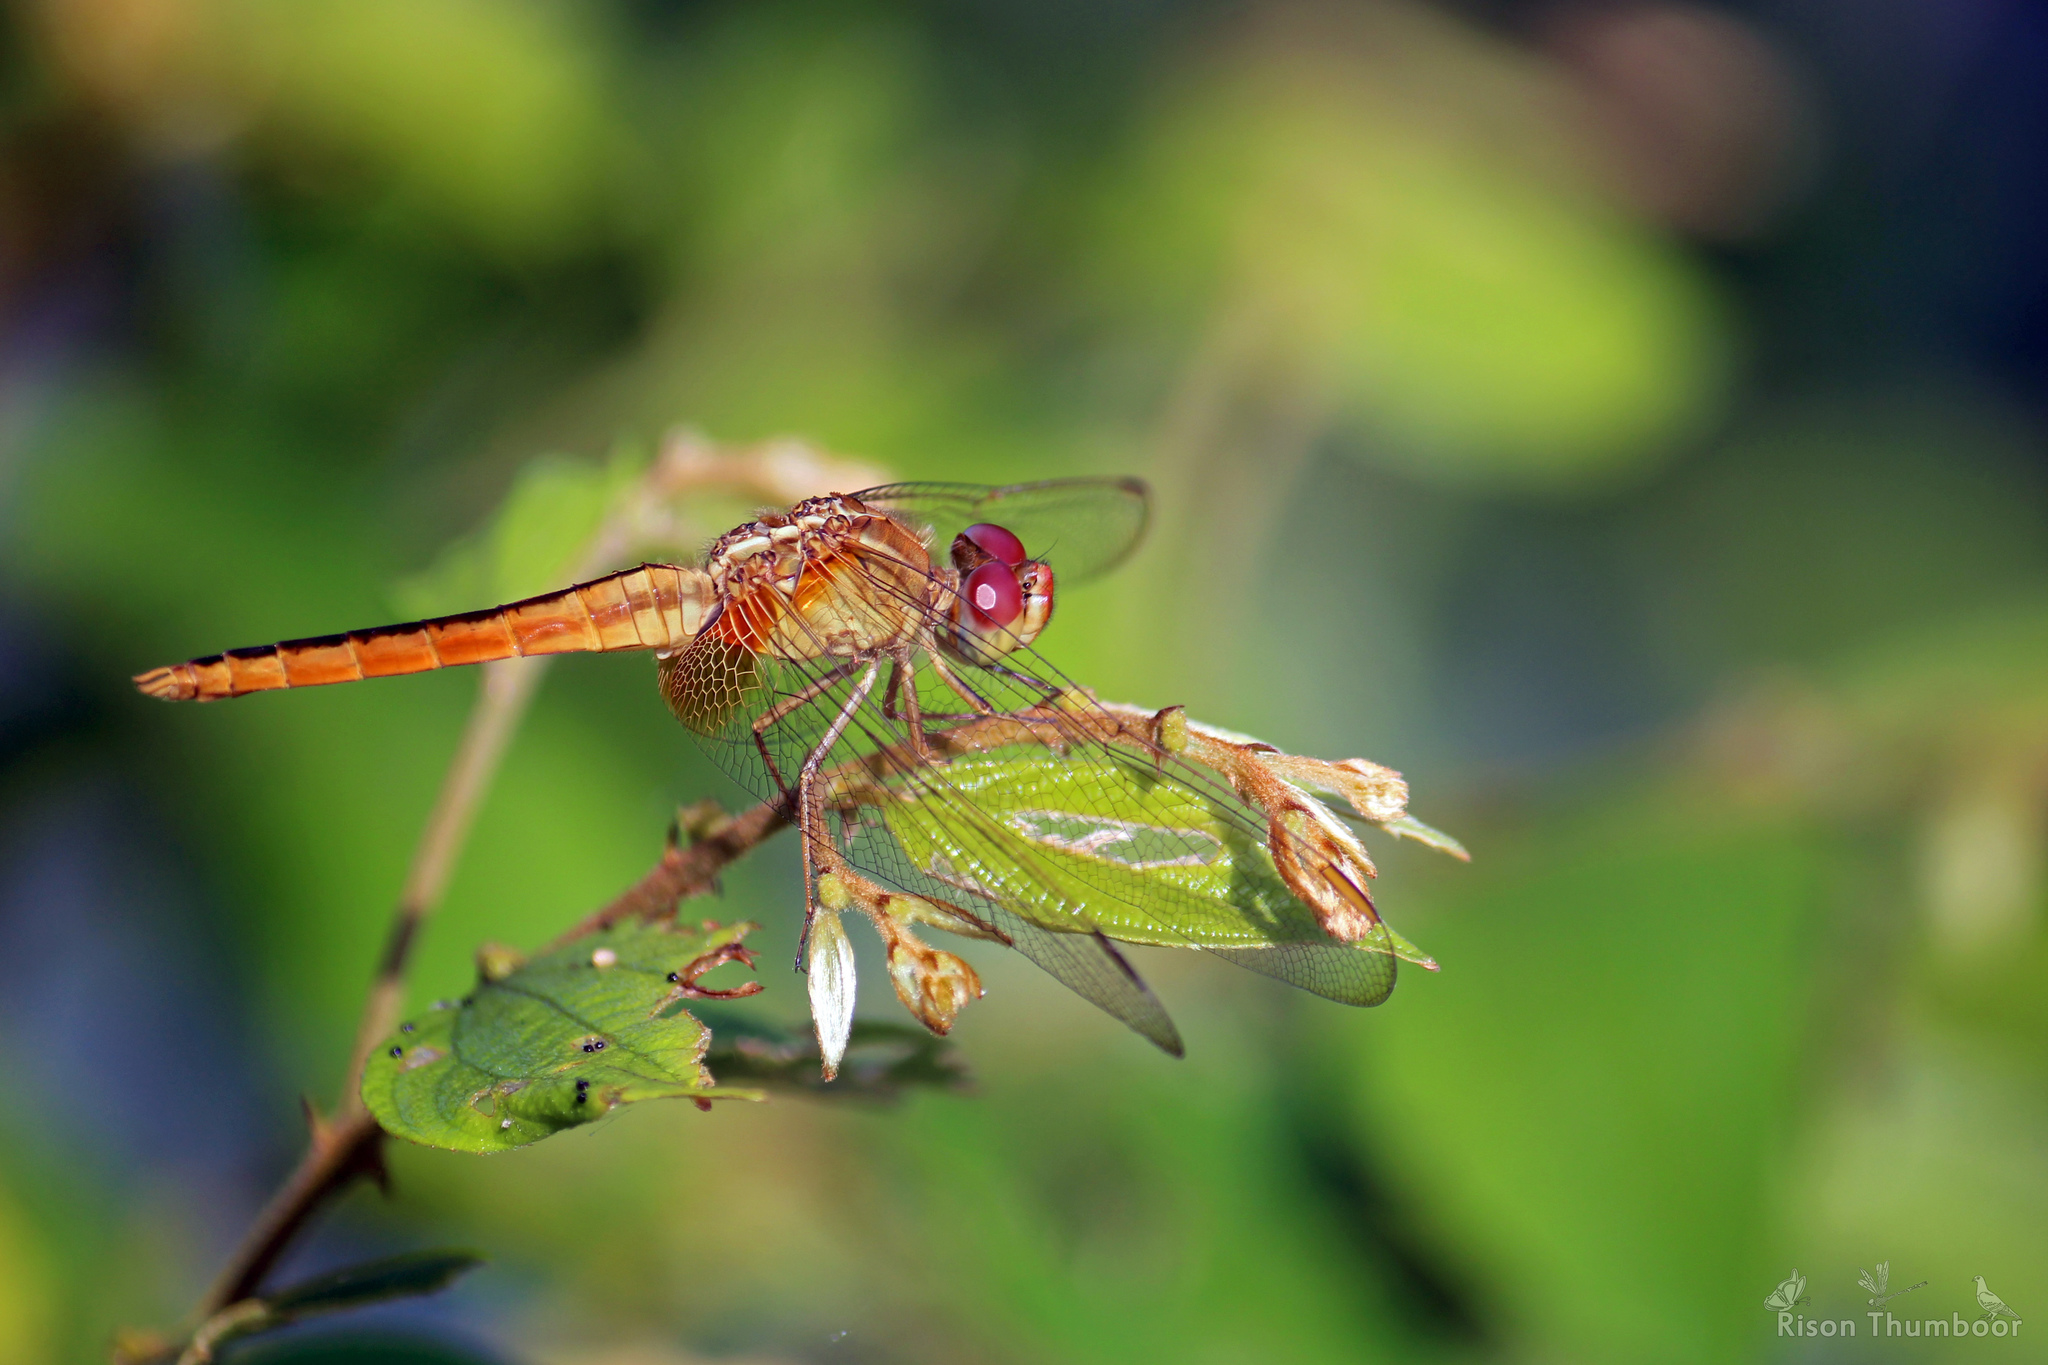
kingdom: Animalia
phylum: Arthropoda
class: Insecta
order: Odonata
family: Libellulidae
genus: Crocothemis
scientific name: Crocothemis servilia
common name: Scarlet skimmer
